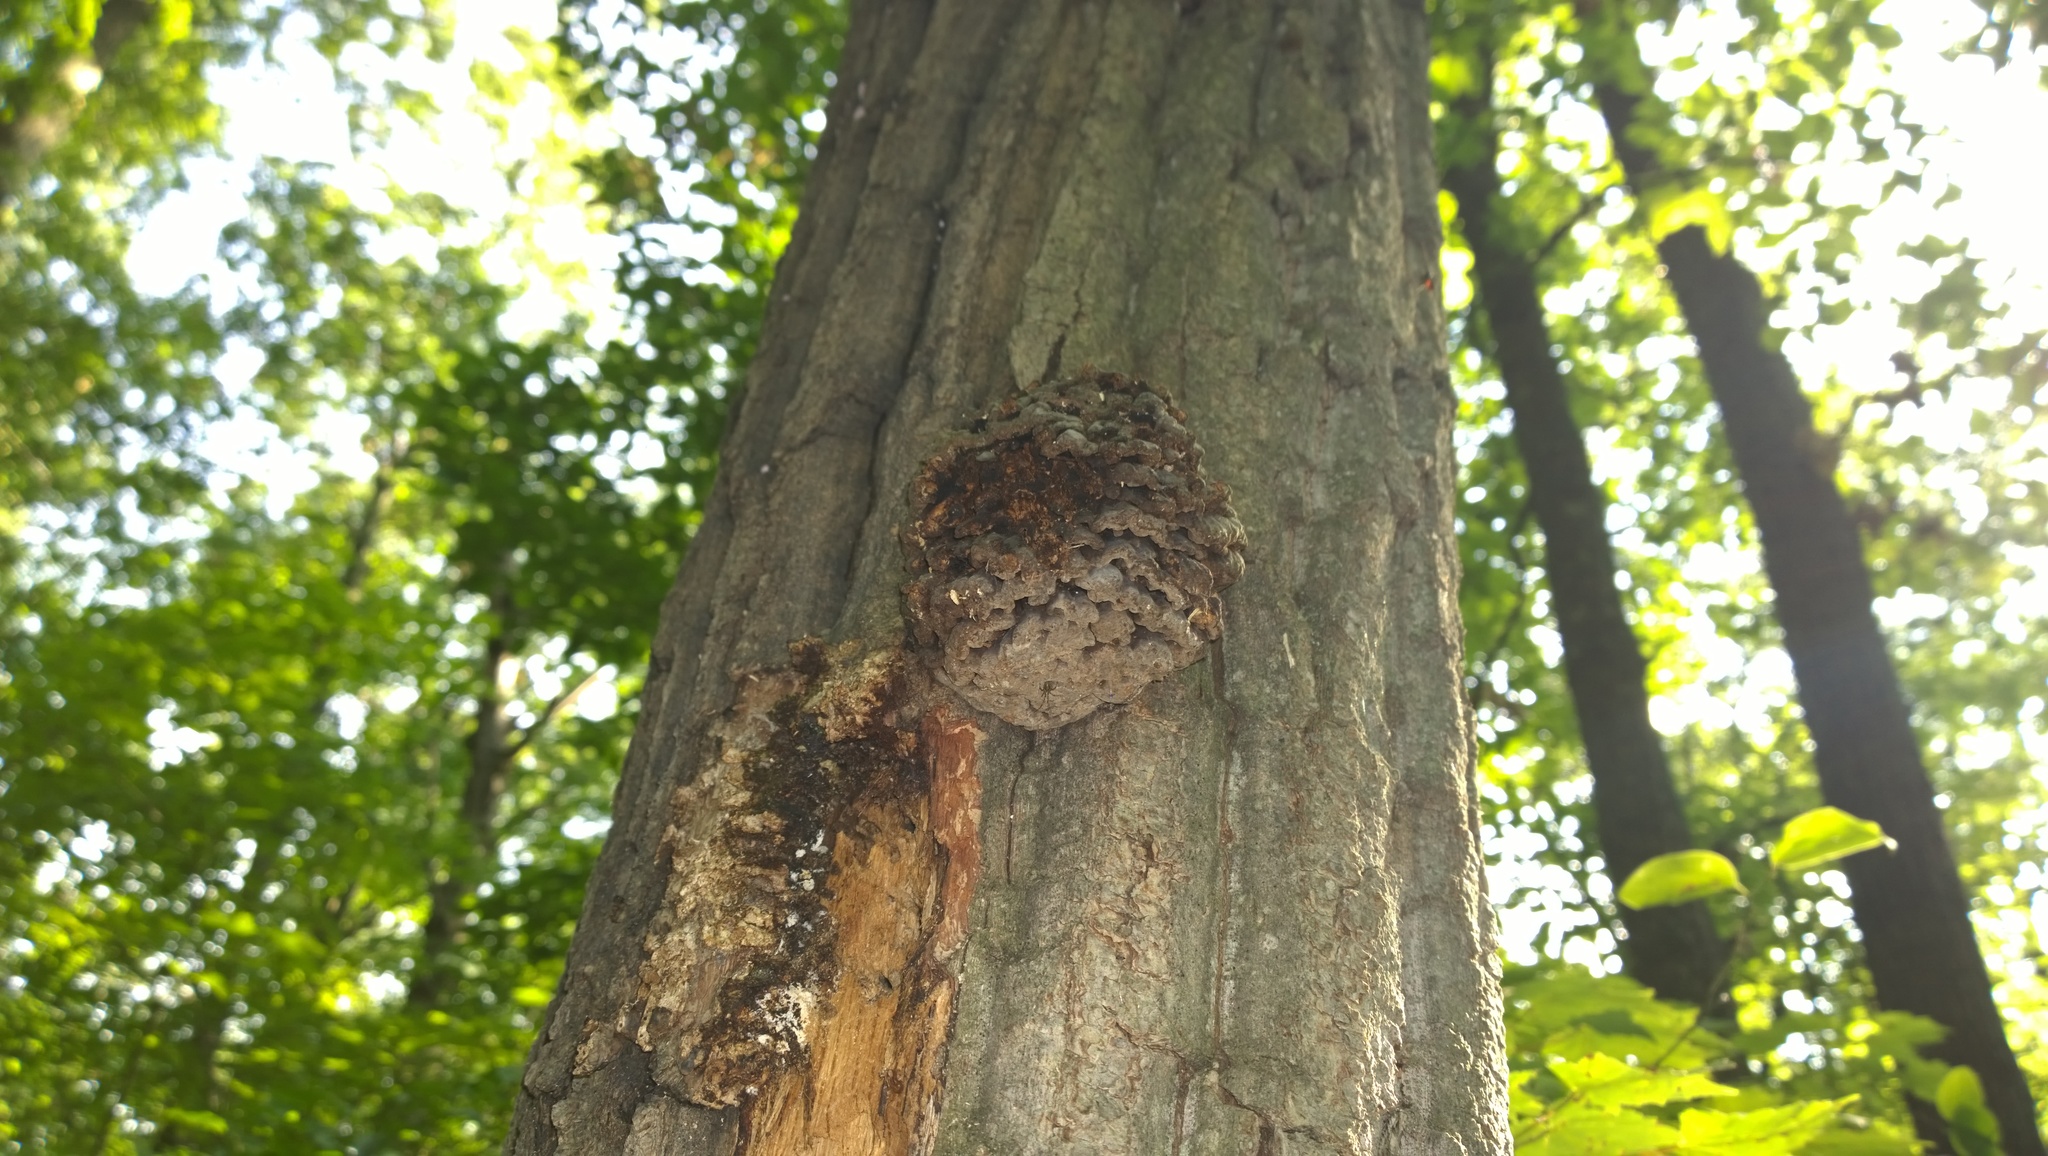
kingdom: Fungi
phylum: Basidiomycota
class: Agaricomycetes
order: Polyporales
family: Polyporaceae
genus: Globifomes
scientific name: Globifomes graveolens
